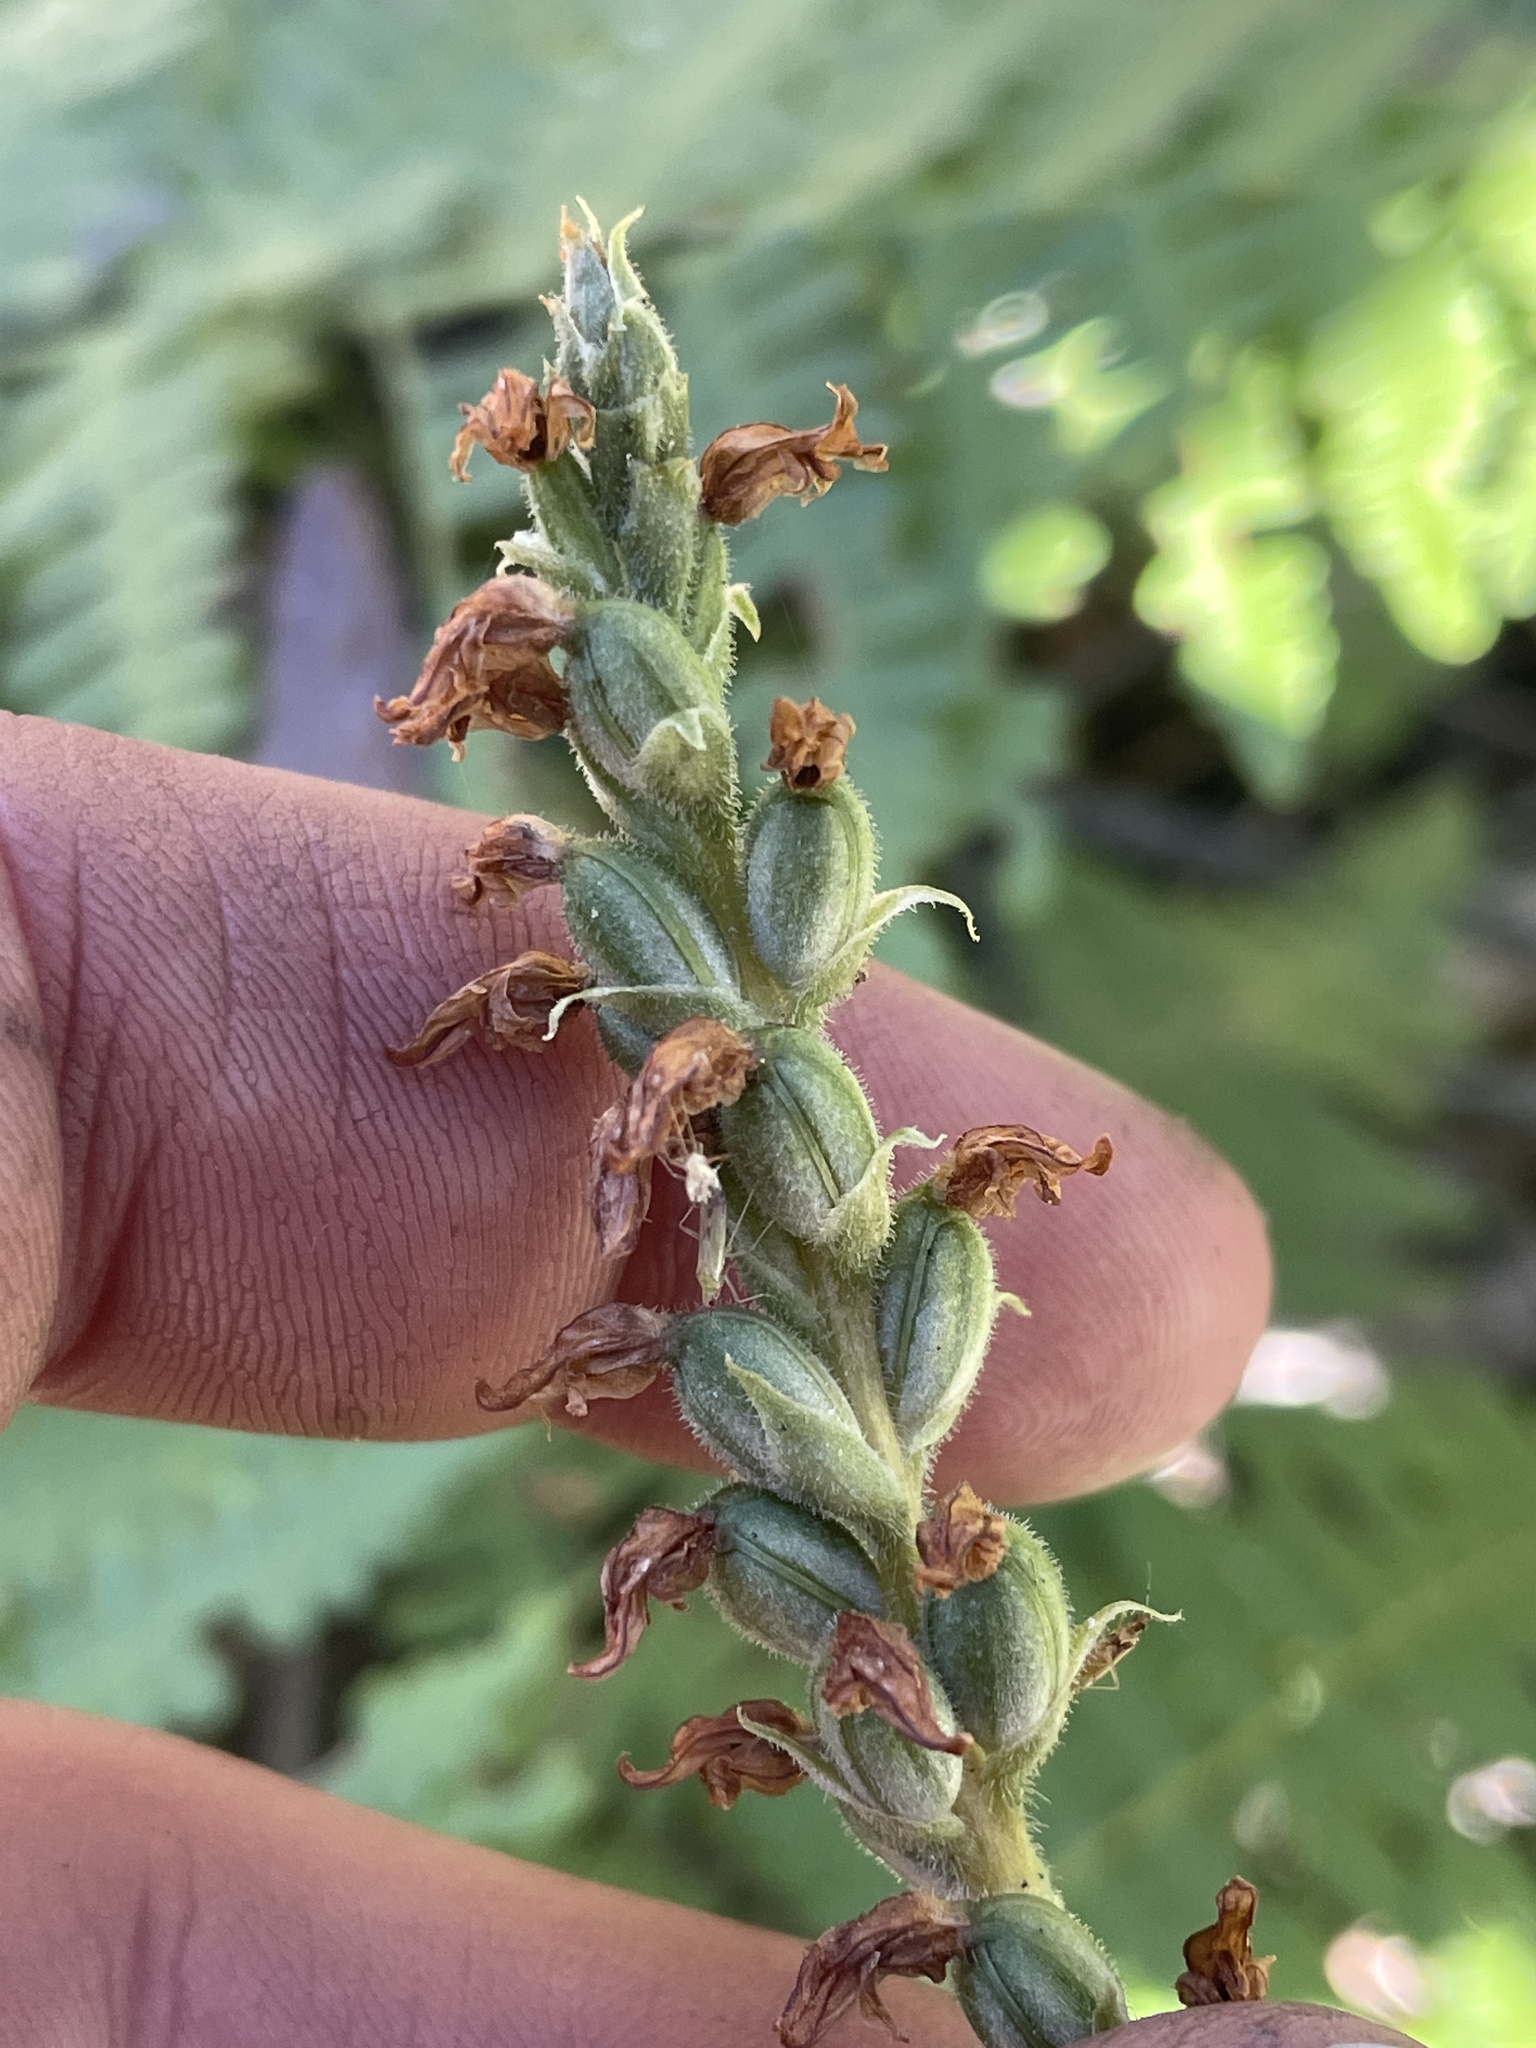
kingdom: Plantae
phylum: Tracheophyta
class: Liliopsida
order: Asparagales
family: Orchidaceae
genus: Goodyera
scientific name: Goodyera oblongifolia
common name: Giant rattlesnake-plantain
